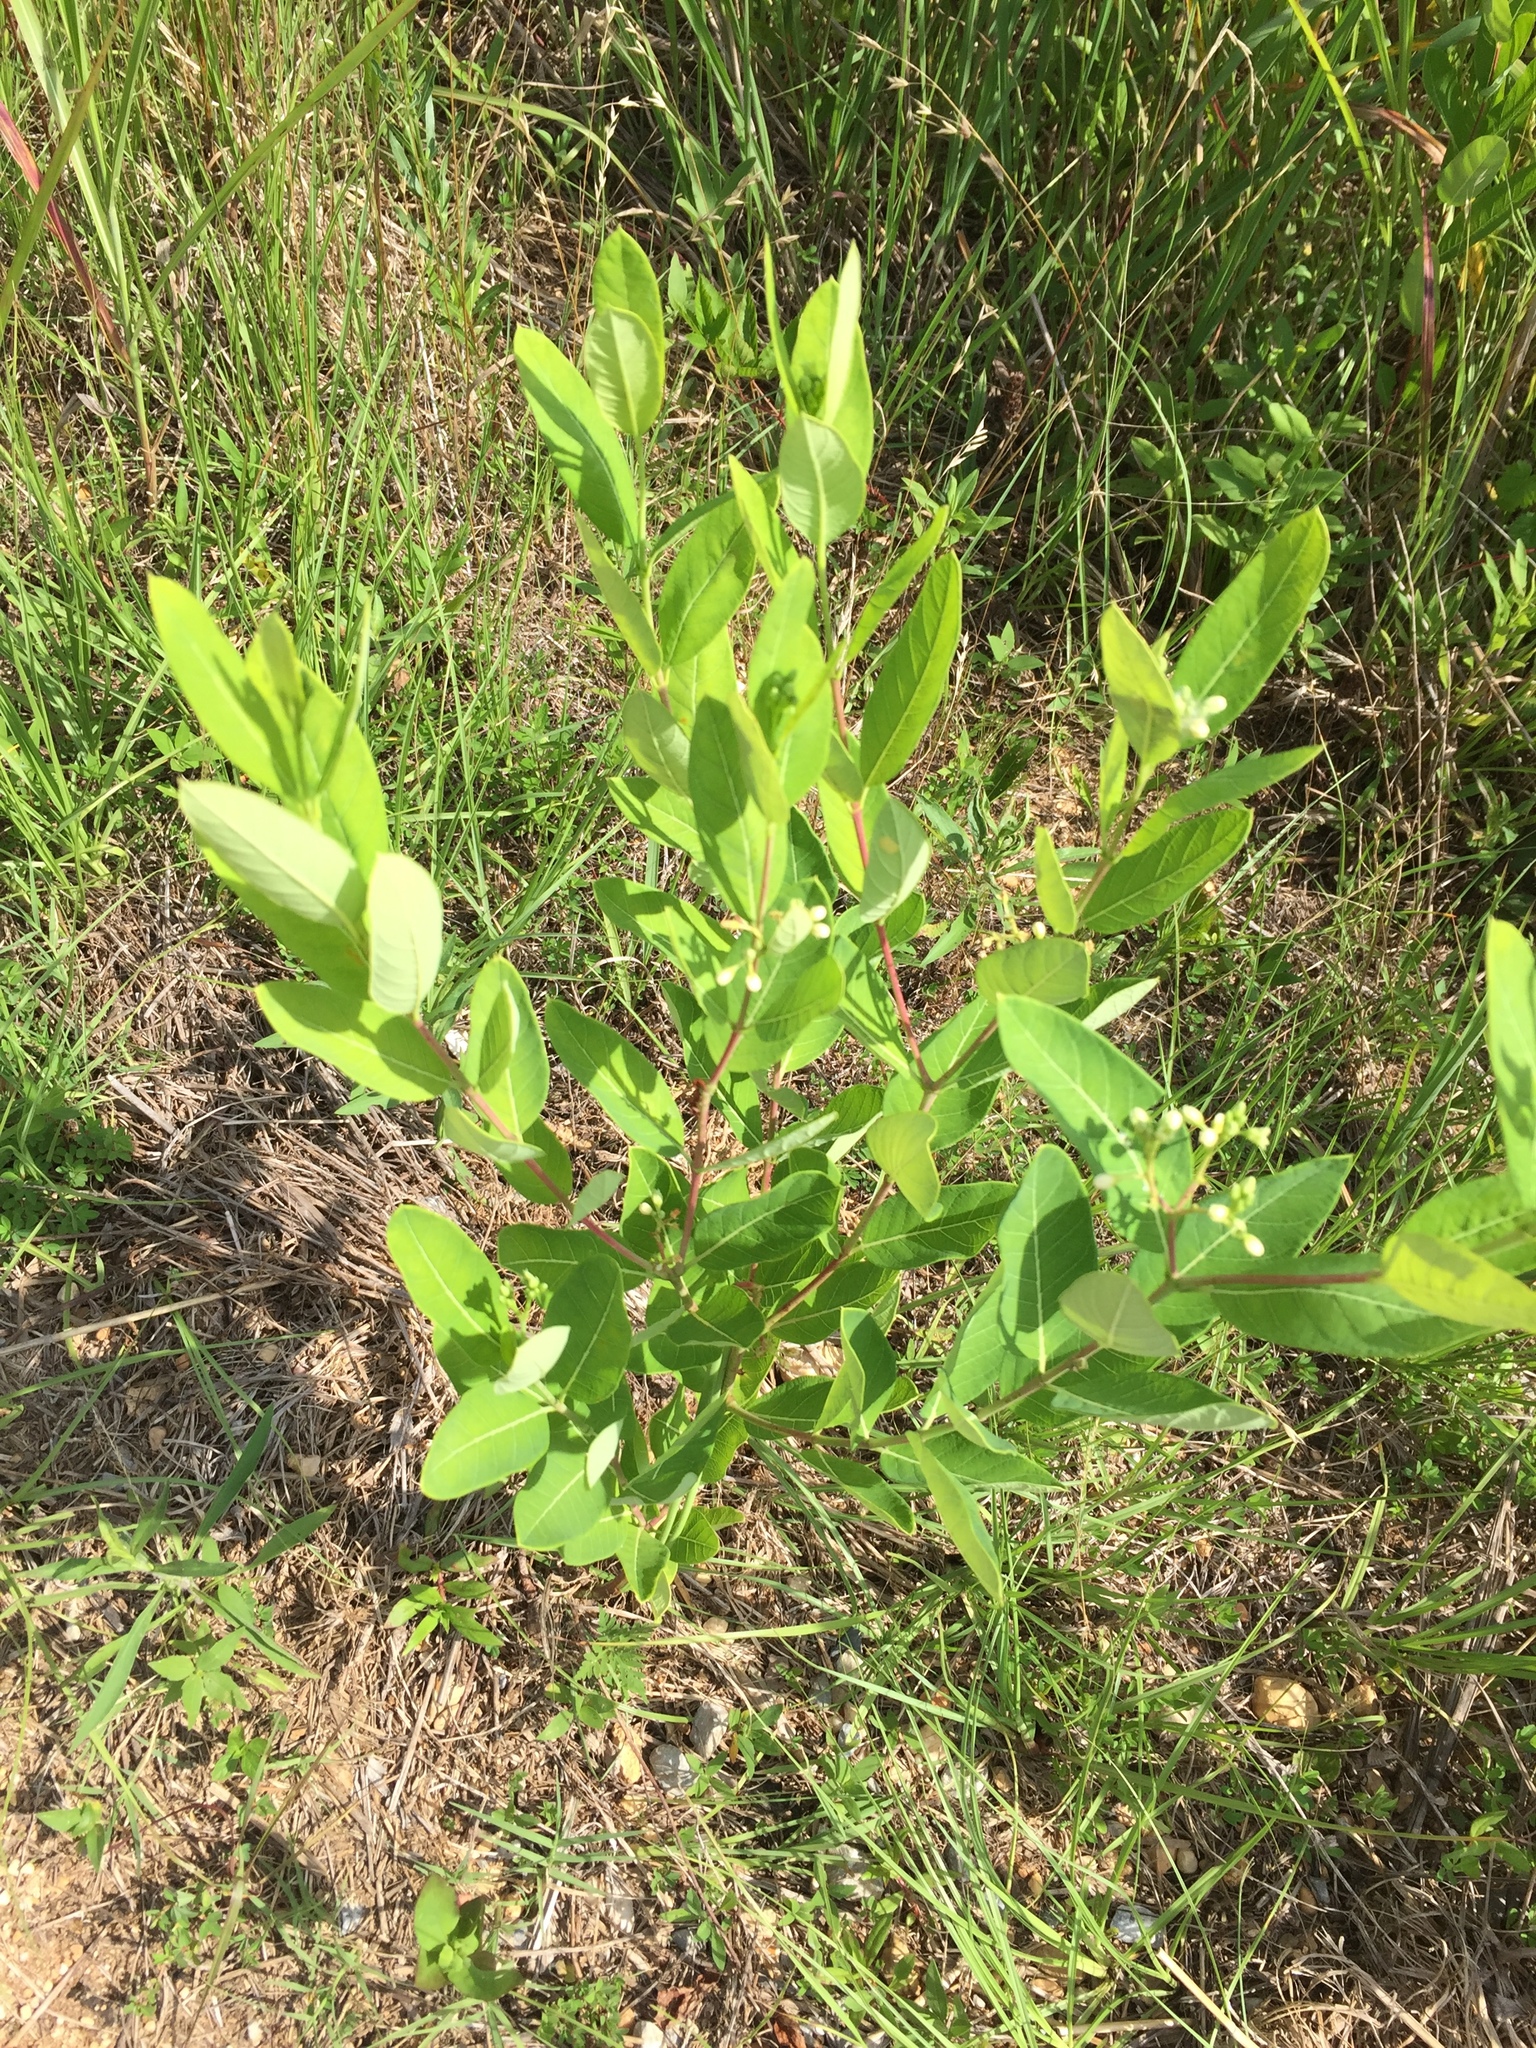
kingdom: Plantae
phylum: Tracheophyta
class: Magnoliopsida
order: Gentianales
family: Apocynaceae
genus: Apocynum
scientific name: Apocynum cannabinum
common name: Hemp dogbane
